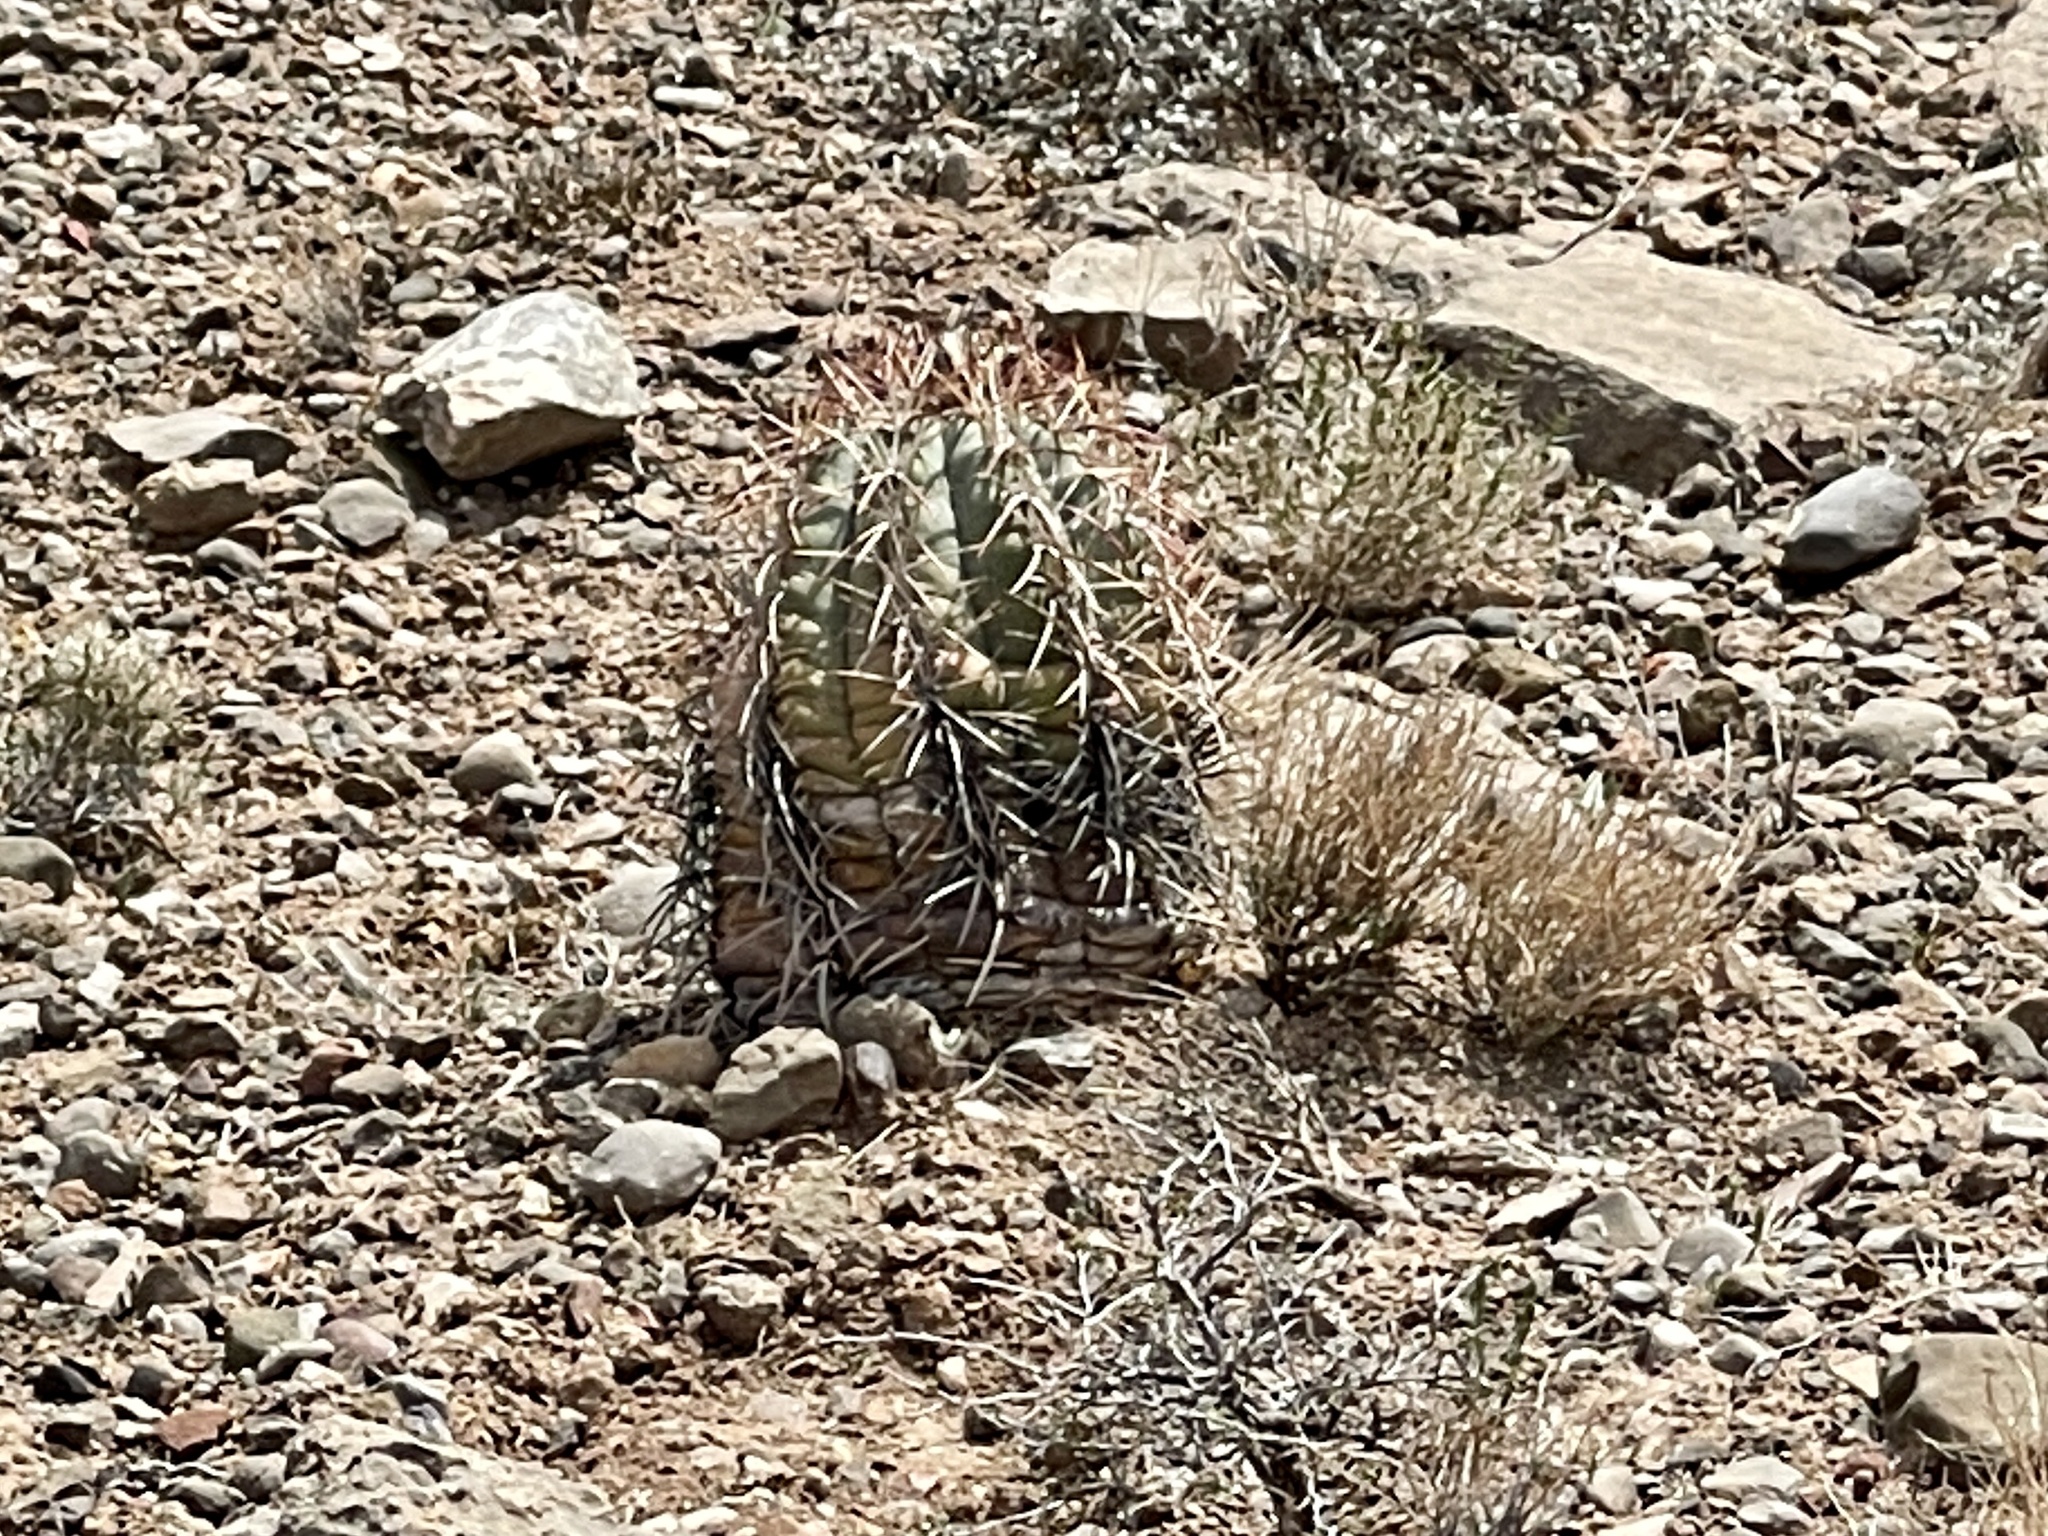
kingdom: Plantae
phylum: Tracheophyta
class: Magnoliopsida
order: Caryophyllales
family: Cactaceae
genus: Echinocactus
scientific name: Echinocactus horizonthalonius
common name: Devilshead
